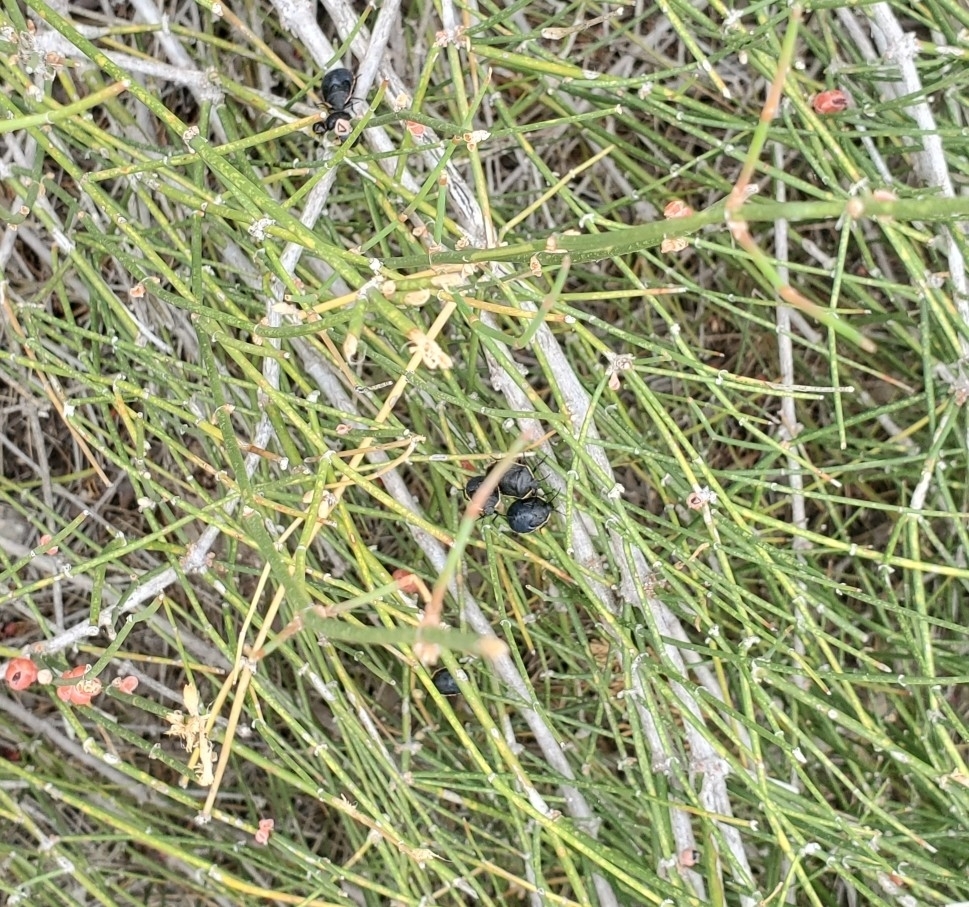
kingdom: Animalia
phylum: Arthropoda
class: Insecta
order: Hemiptera
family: Pentatomidae
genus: Chlorochroa
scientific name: Chlorochroa ligata
